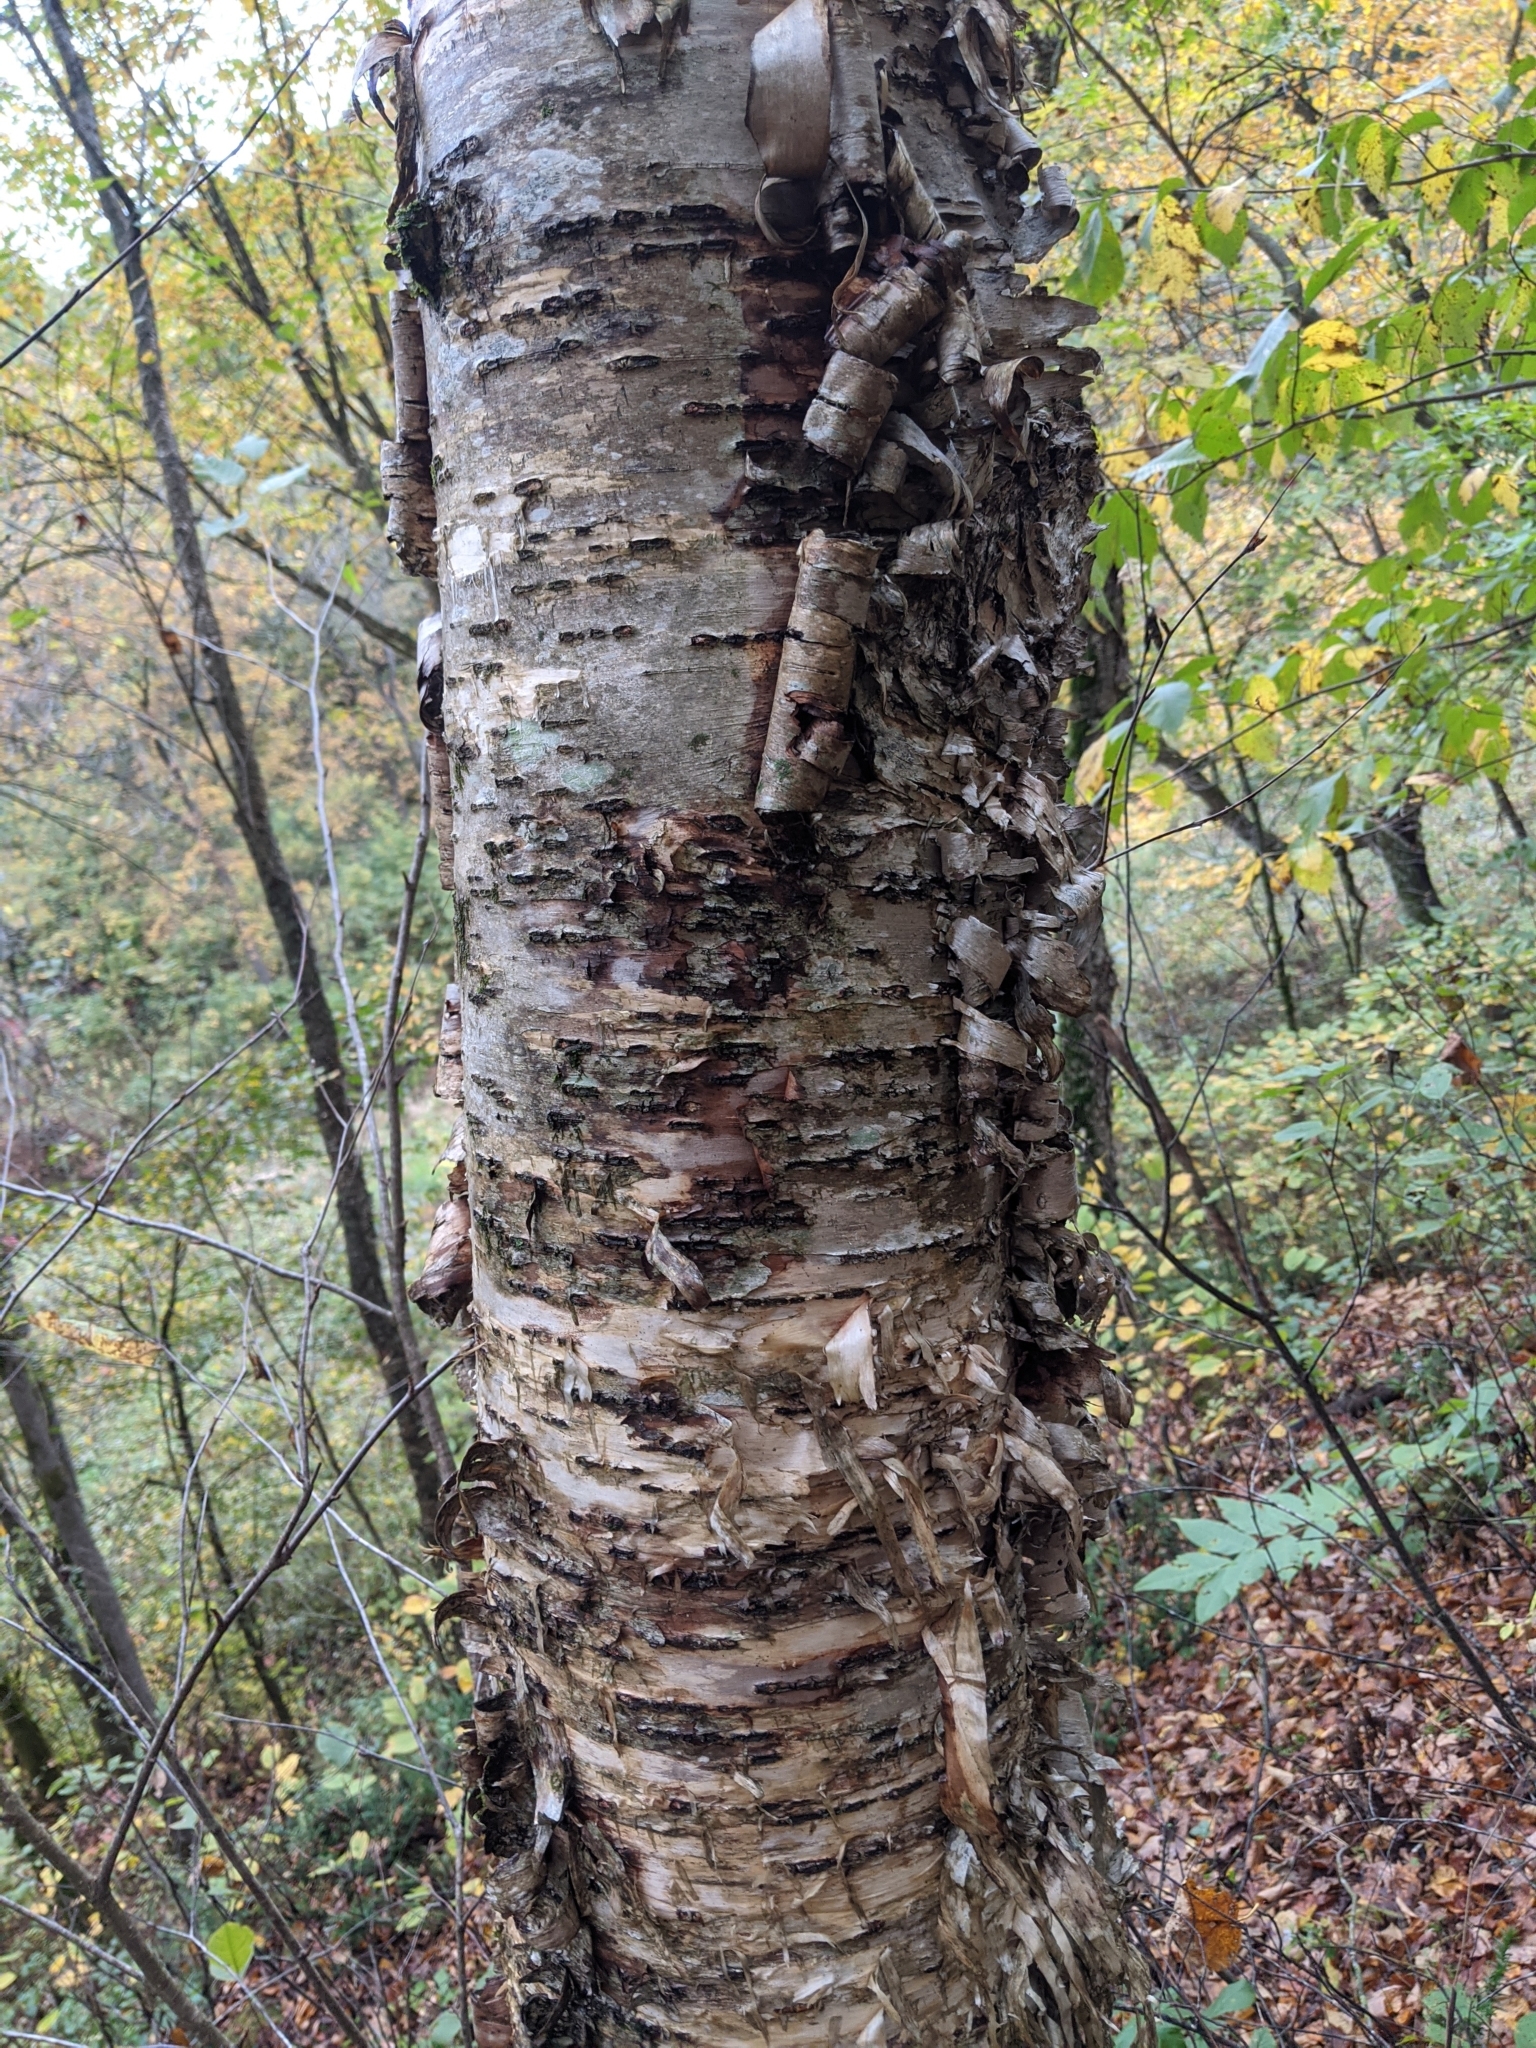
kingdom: Plantae
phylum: Tracheophyta
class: Magnoliopsida
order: Fagales
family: Betulaceae
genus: Betula
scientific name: Betula alleghaniensis
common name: Yellow birch
